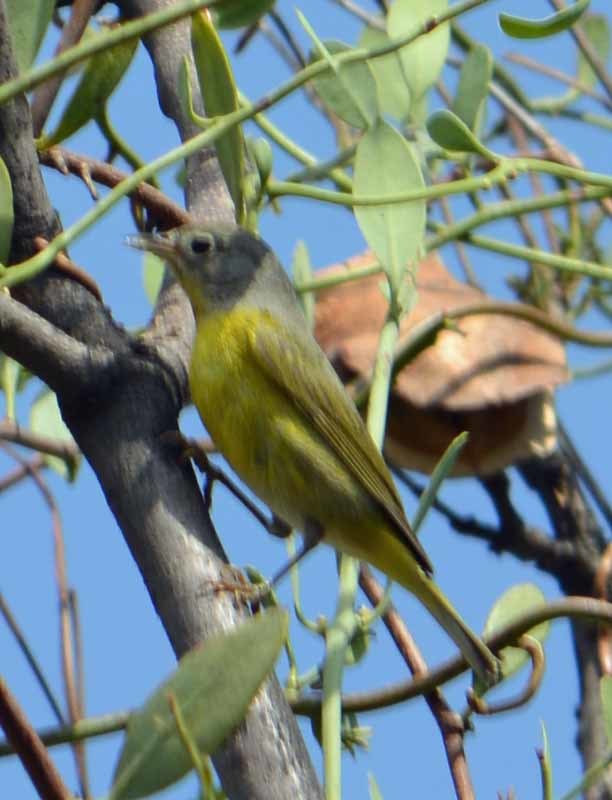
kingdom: Animalia
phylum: Chordata
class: Aves
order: Passeriformes
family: Parulidae
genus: Leiothlypis
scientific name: Leiothlypis ruficapilla
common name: Nashville warbler
